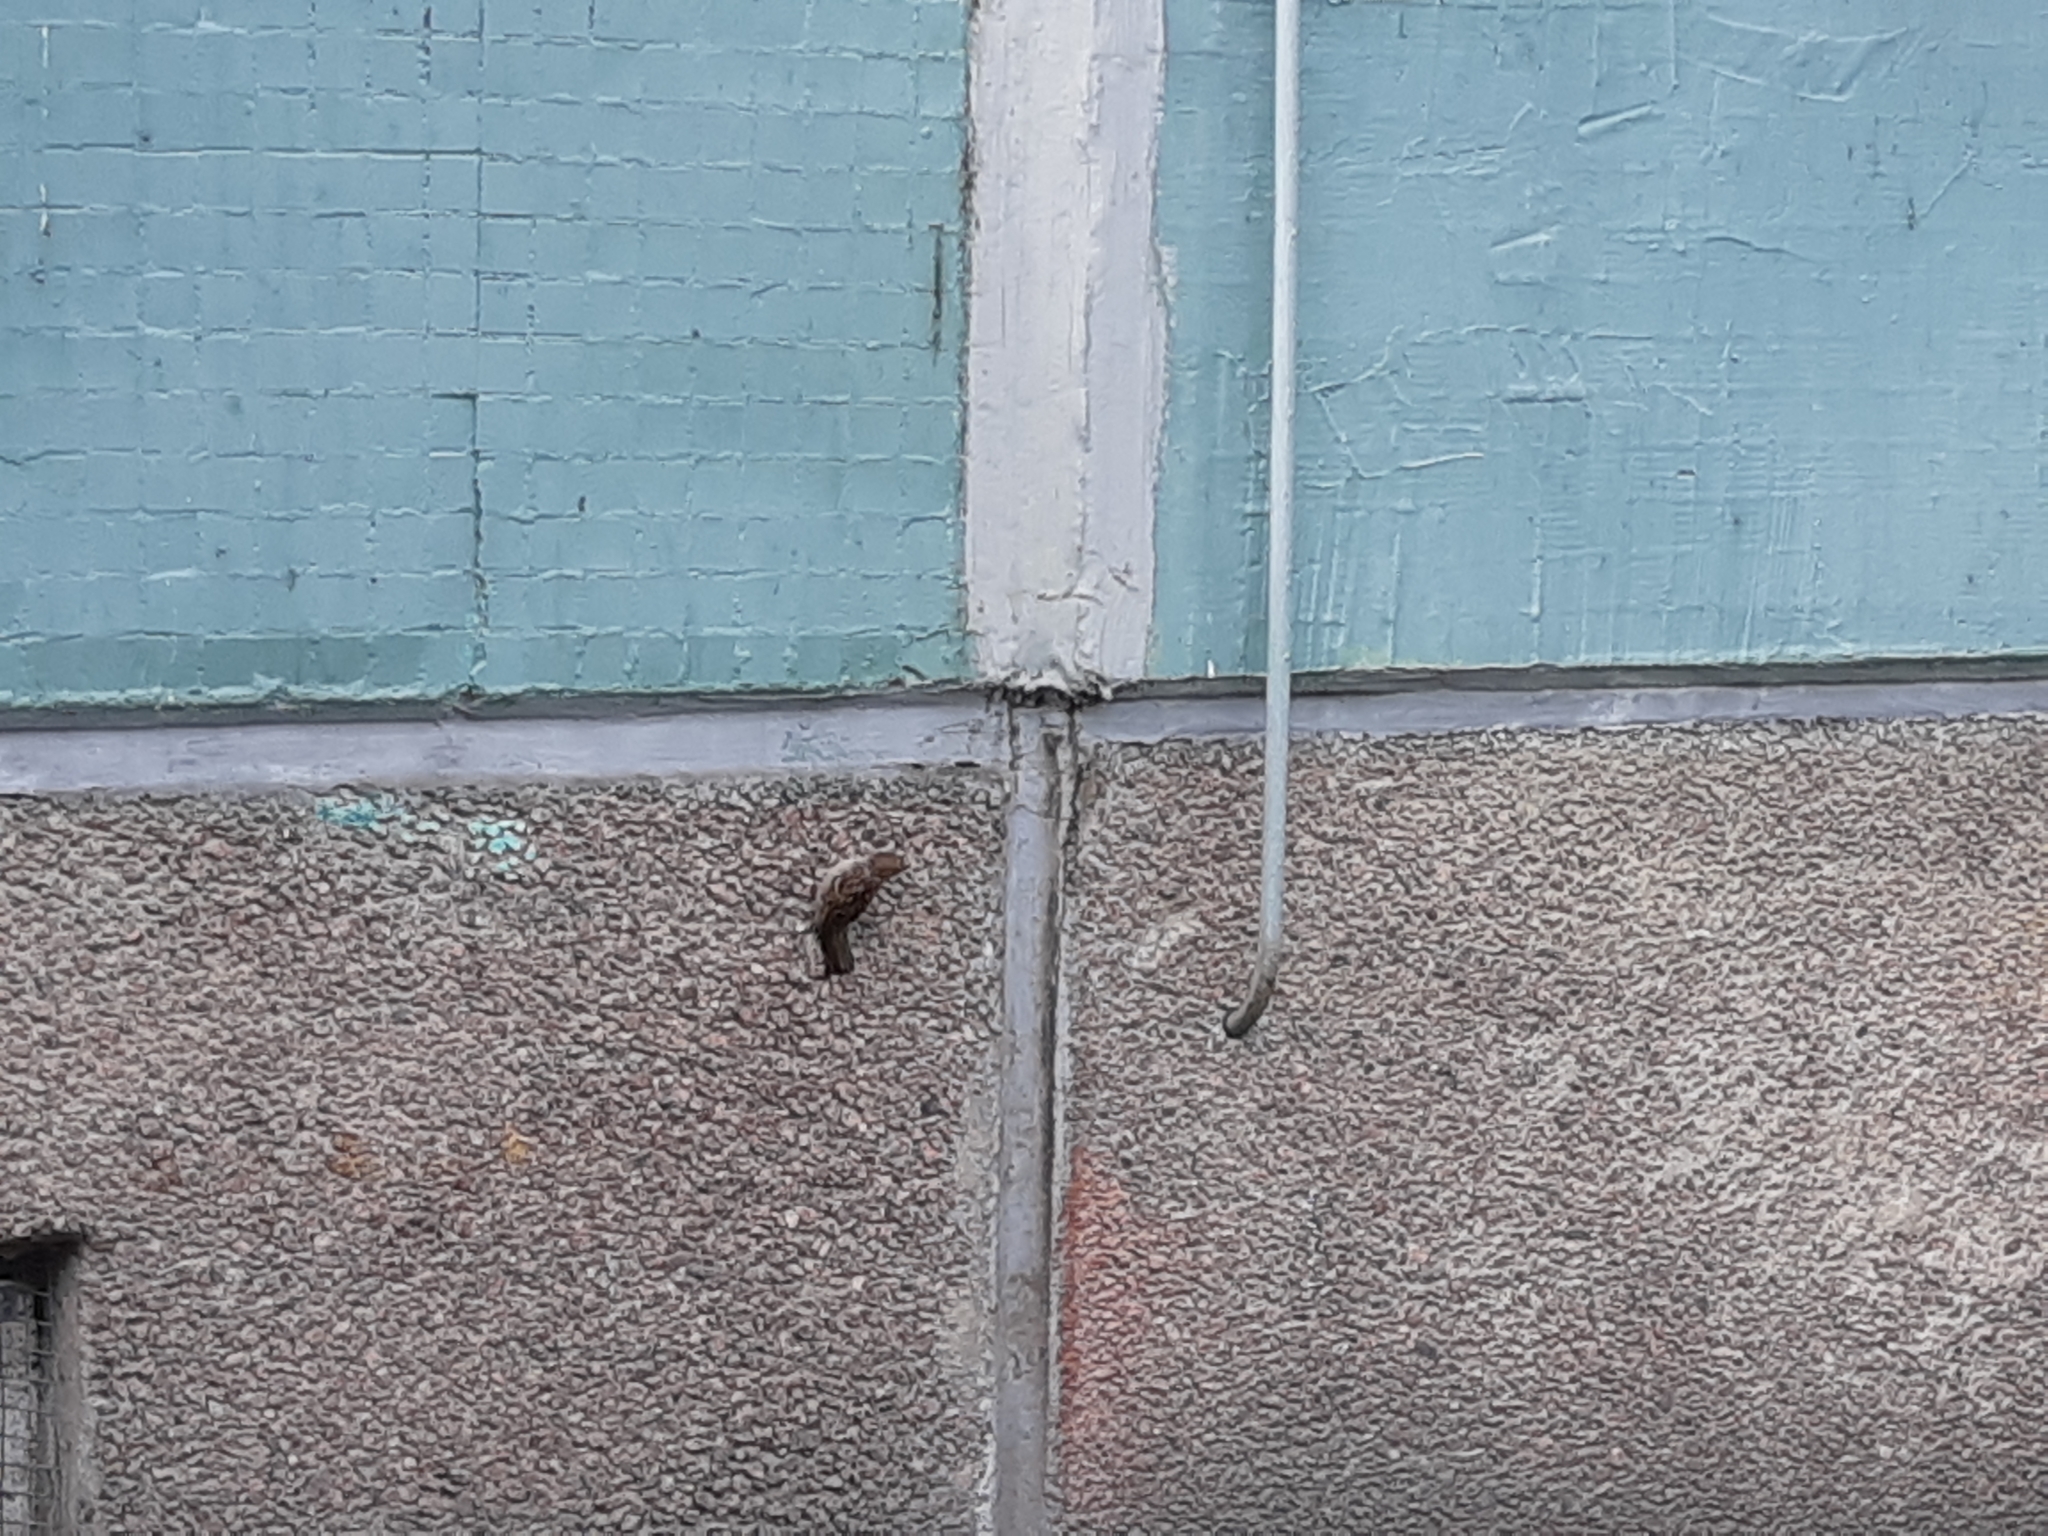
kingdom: Animalia
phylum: Chordata
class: Aves
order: Passeriformes
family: Passeridae
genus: Passer
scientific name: Passer domesticus
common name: House sparrow
